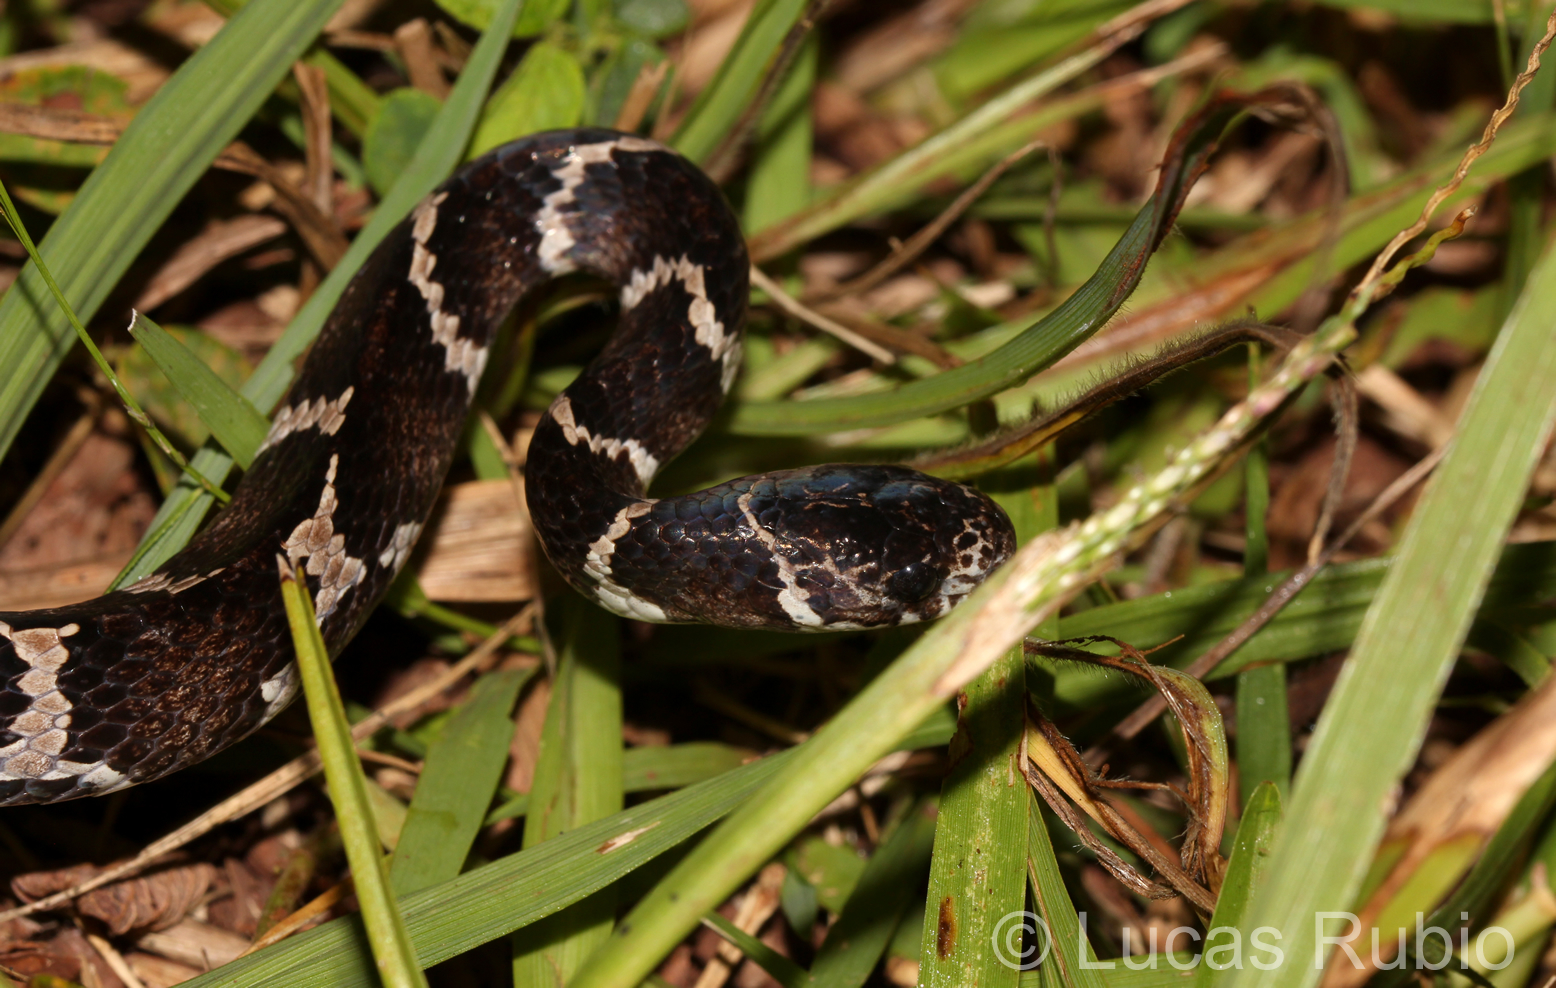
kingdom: Animalia
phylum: Chordata
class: Squamata
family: Colubridae
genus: Dipsas
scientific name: Dipsas ventrimaculata
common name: Boulenger's tree snake
